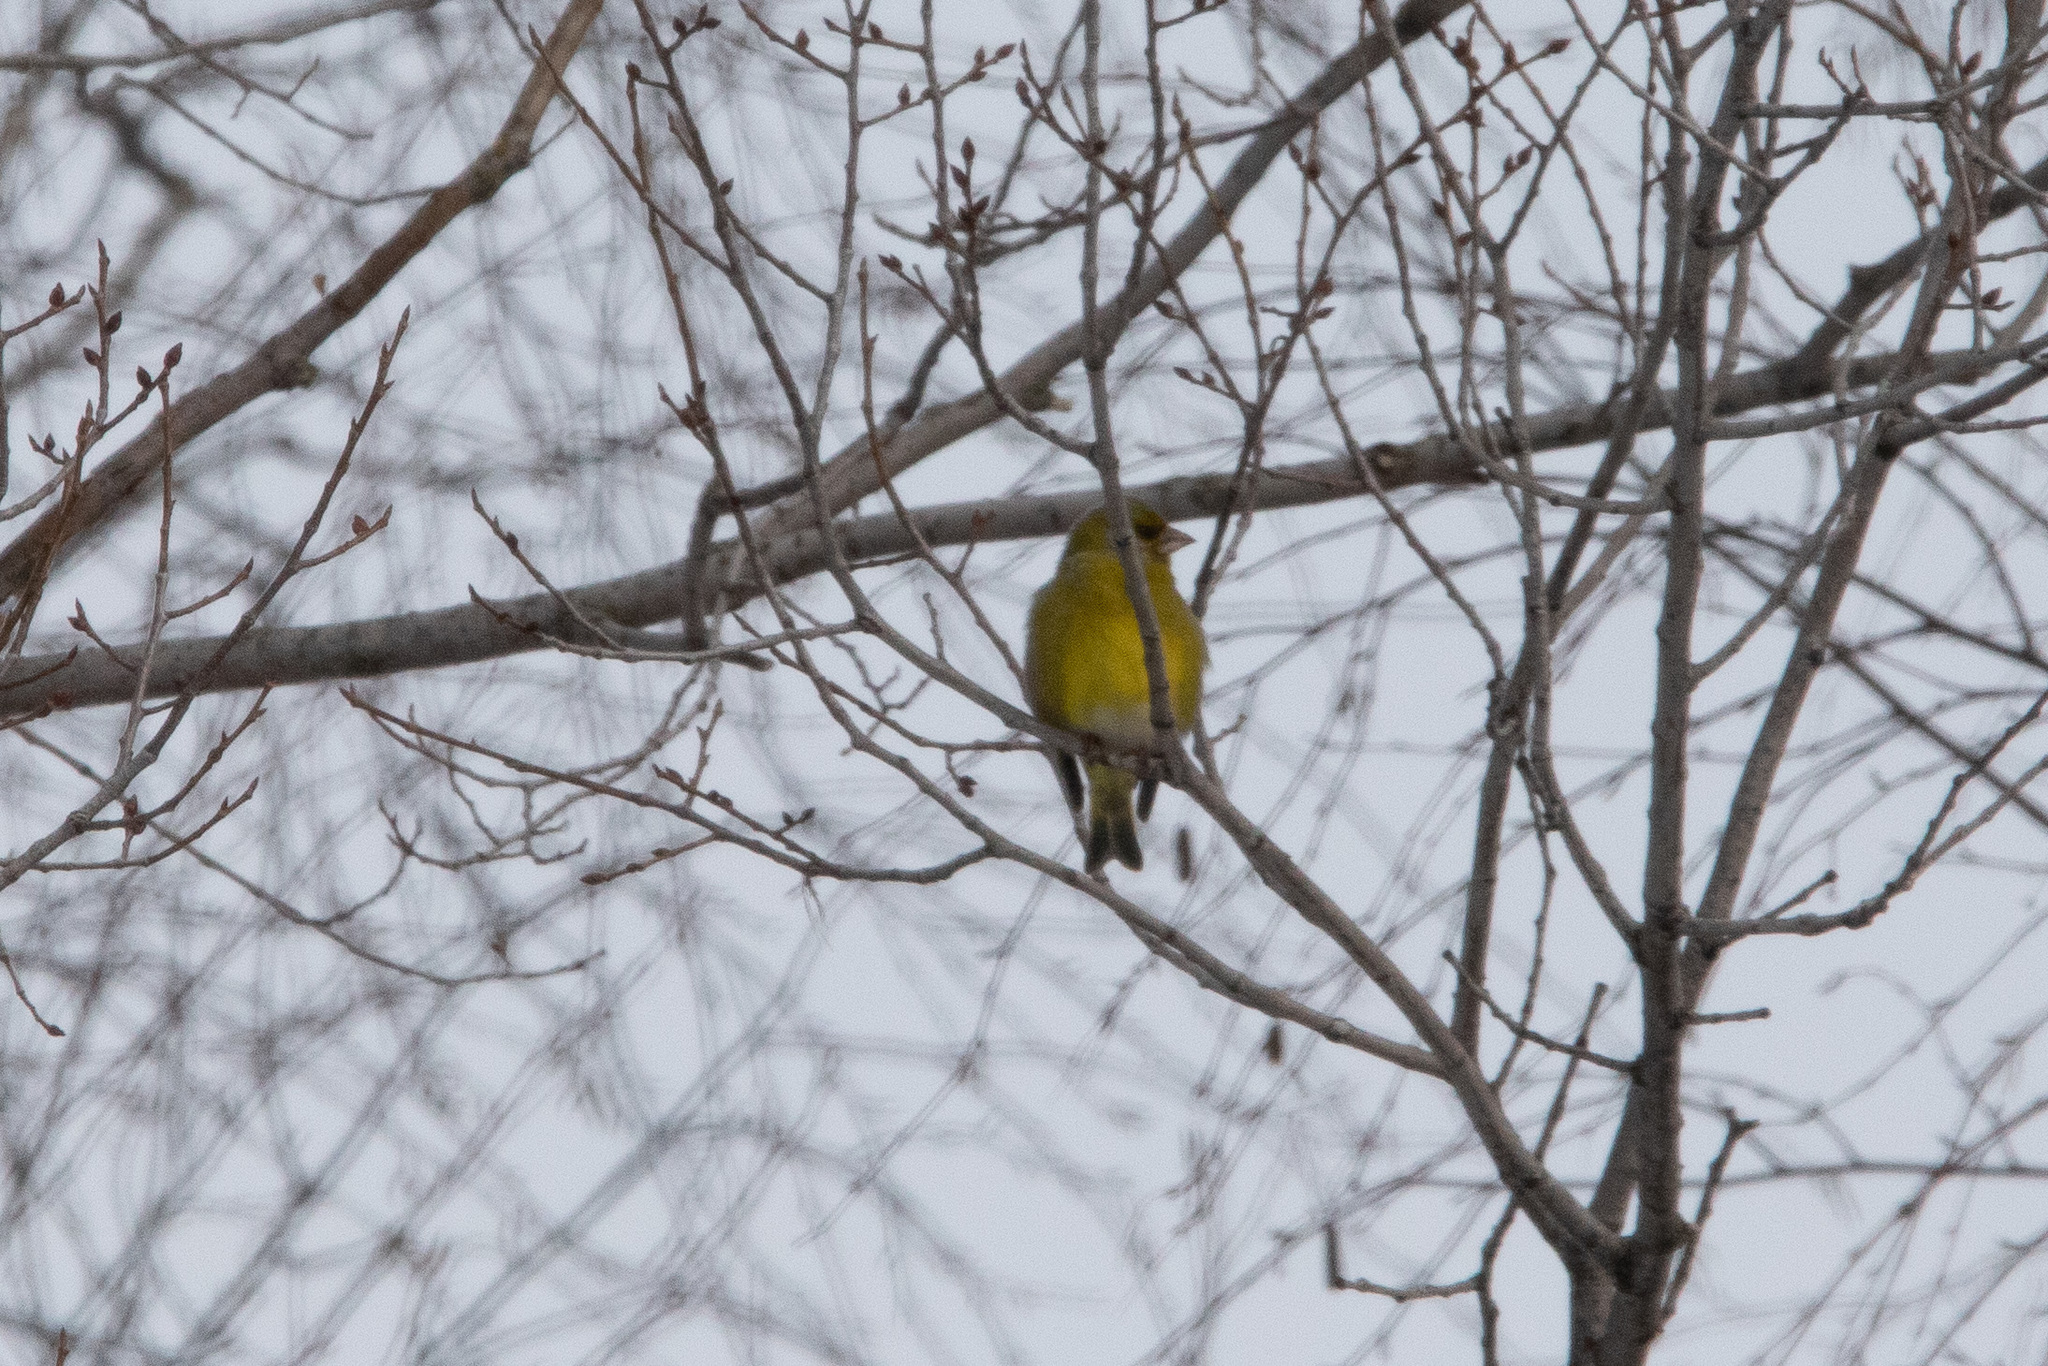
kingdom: Plantae
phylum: Tracheophyta
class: Liliopsida
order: Poales
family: Poaceae
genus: Chloris
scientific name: Chloris chloris
